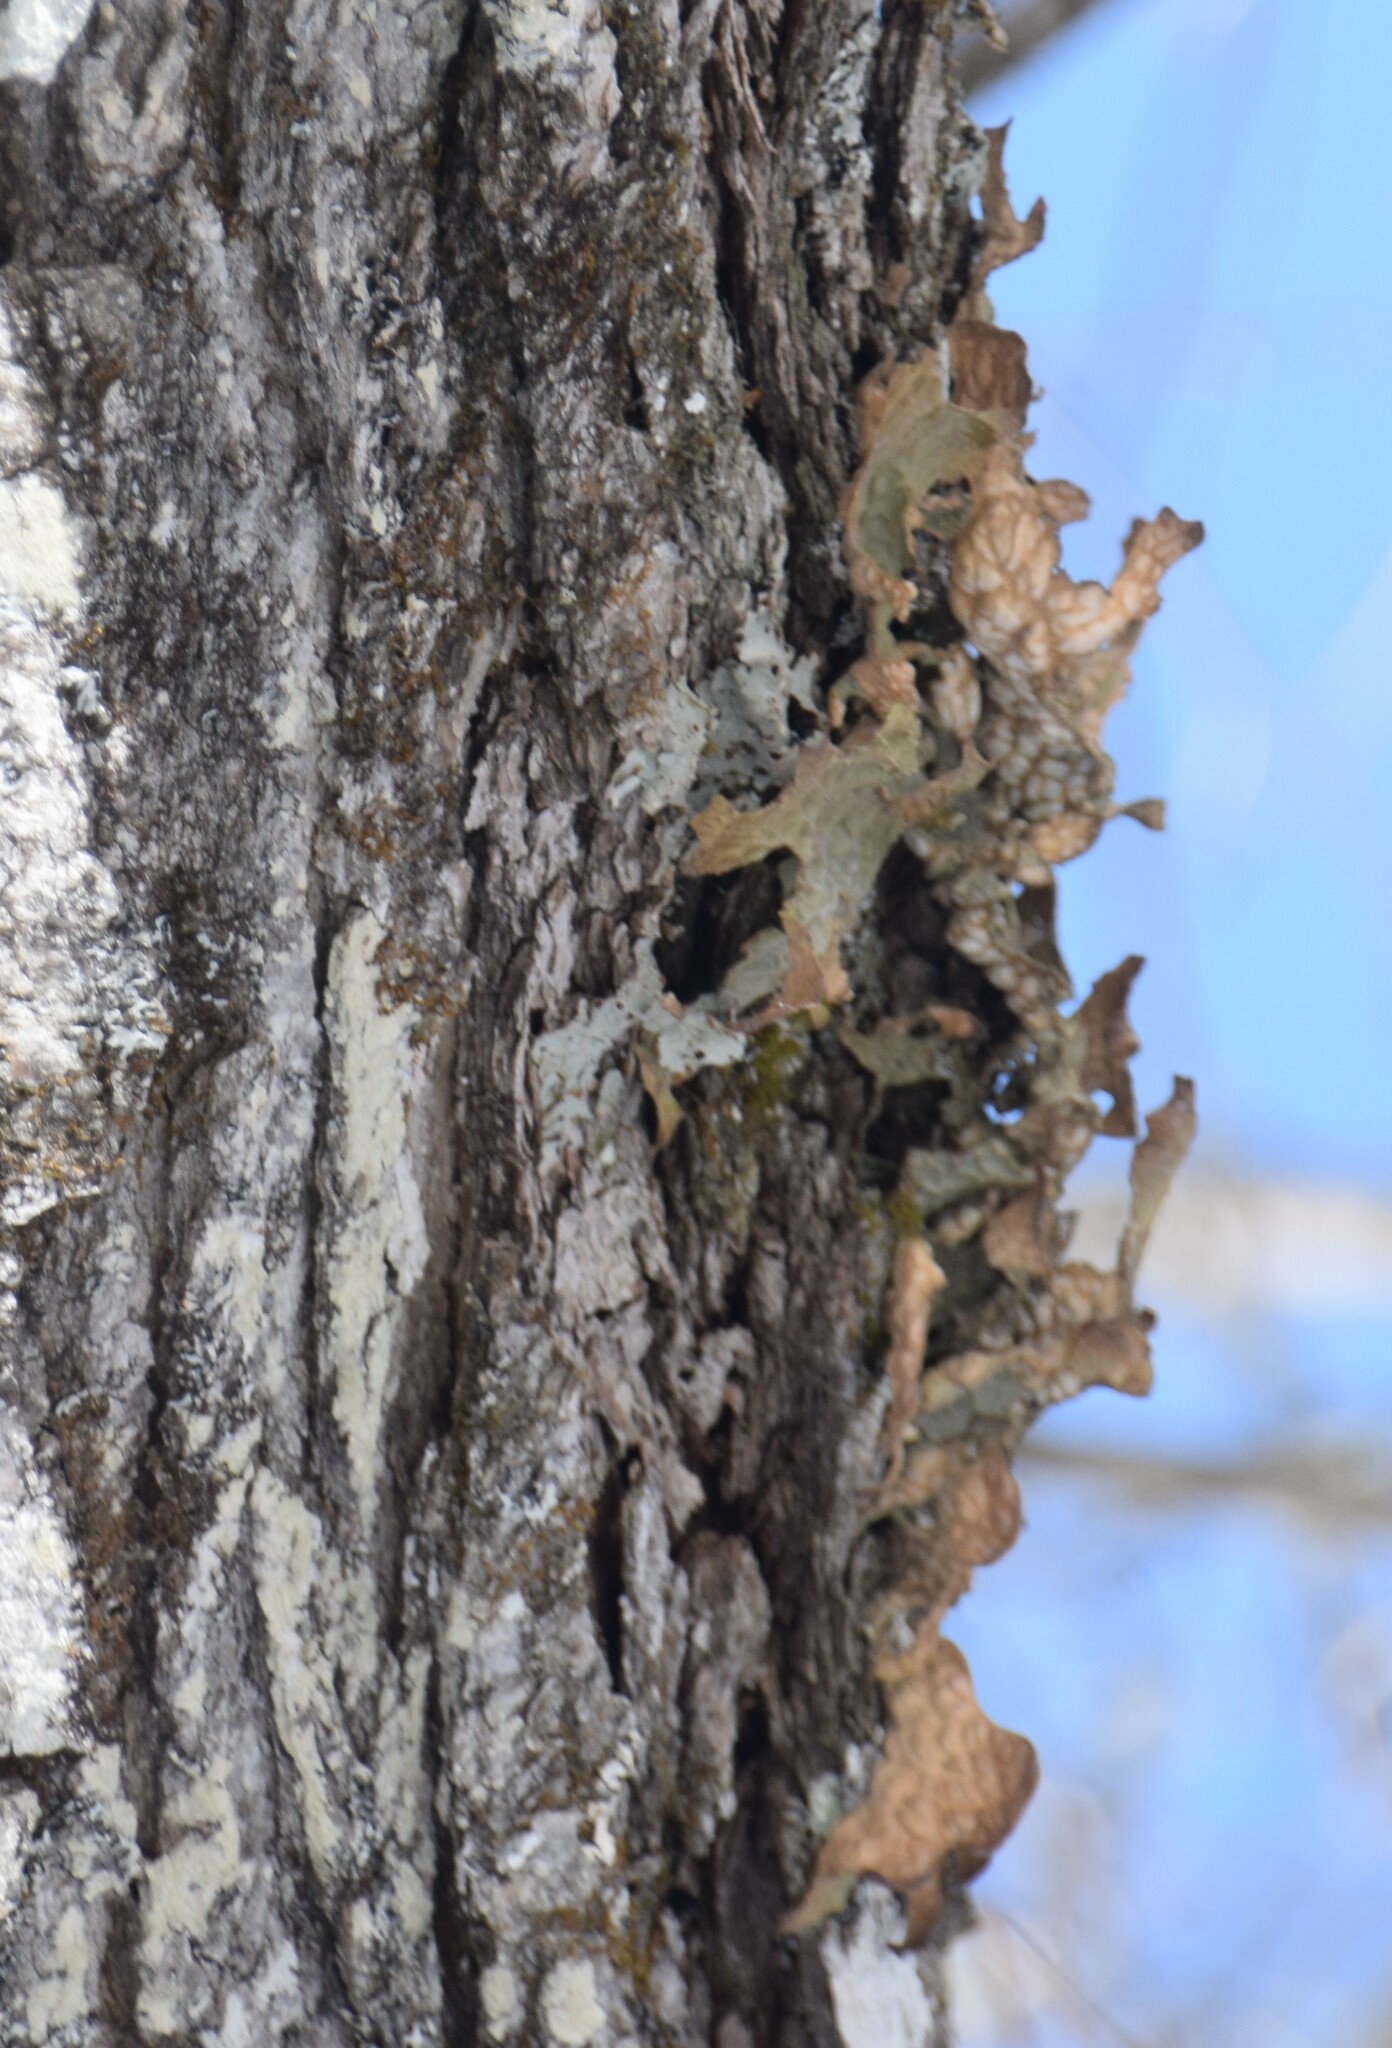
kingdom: Fungi
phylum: Ascomycota
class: Lecanoromycetes
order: Peltigerales
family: Lobariaceae
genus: Lobaria
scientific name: Lobaria pulmonaria
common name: Lungwort
